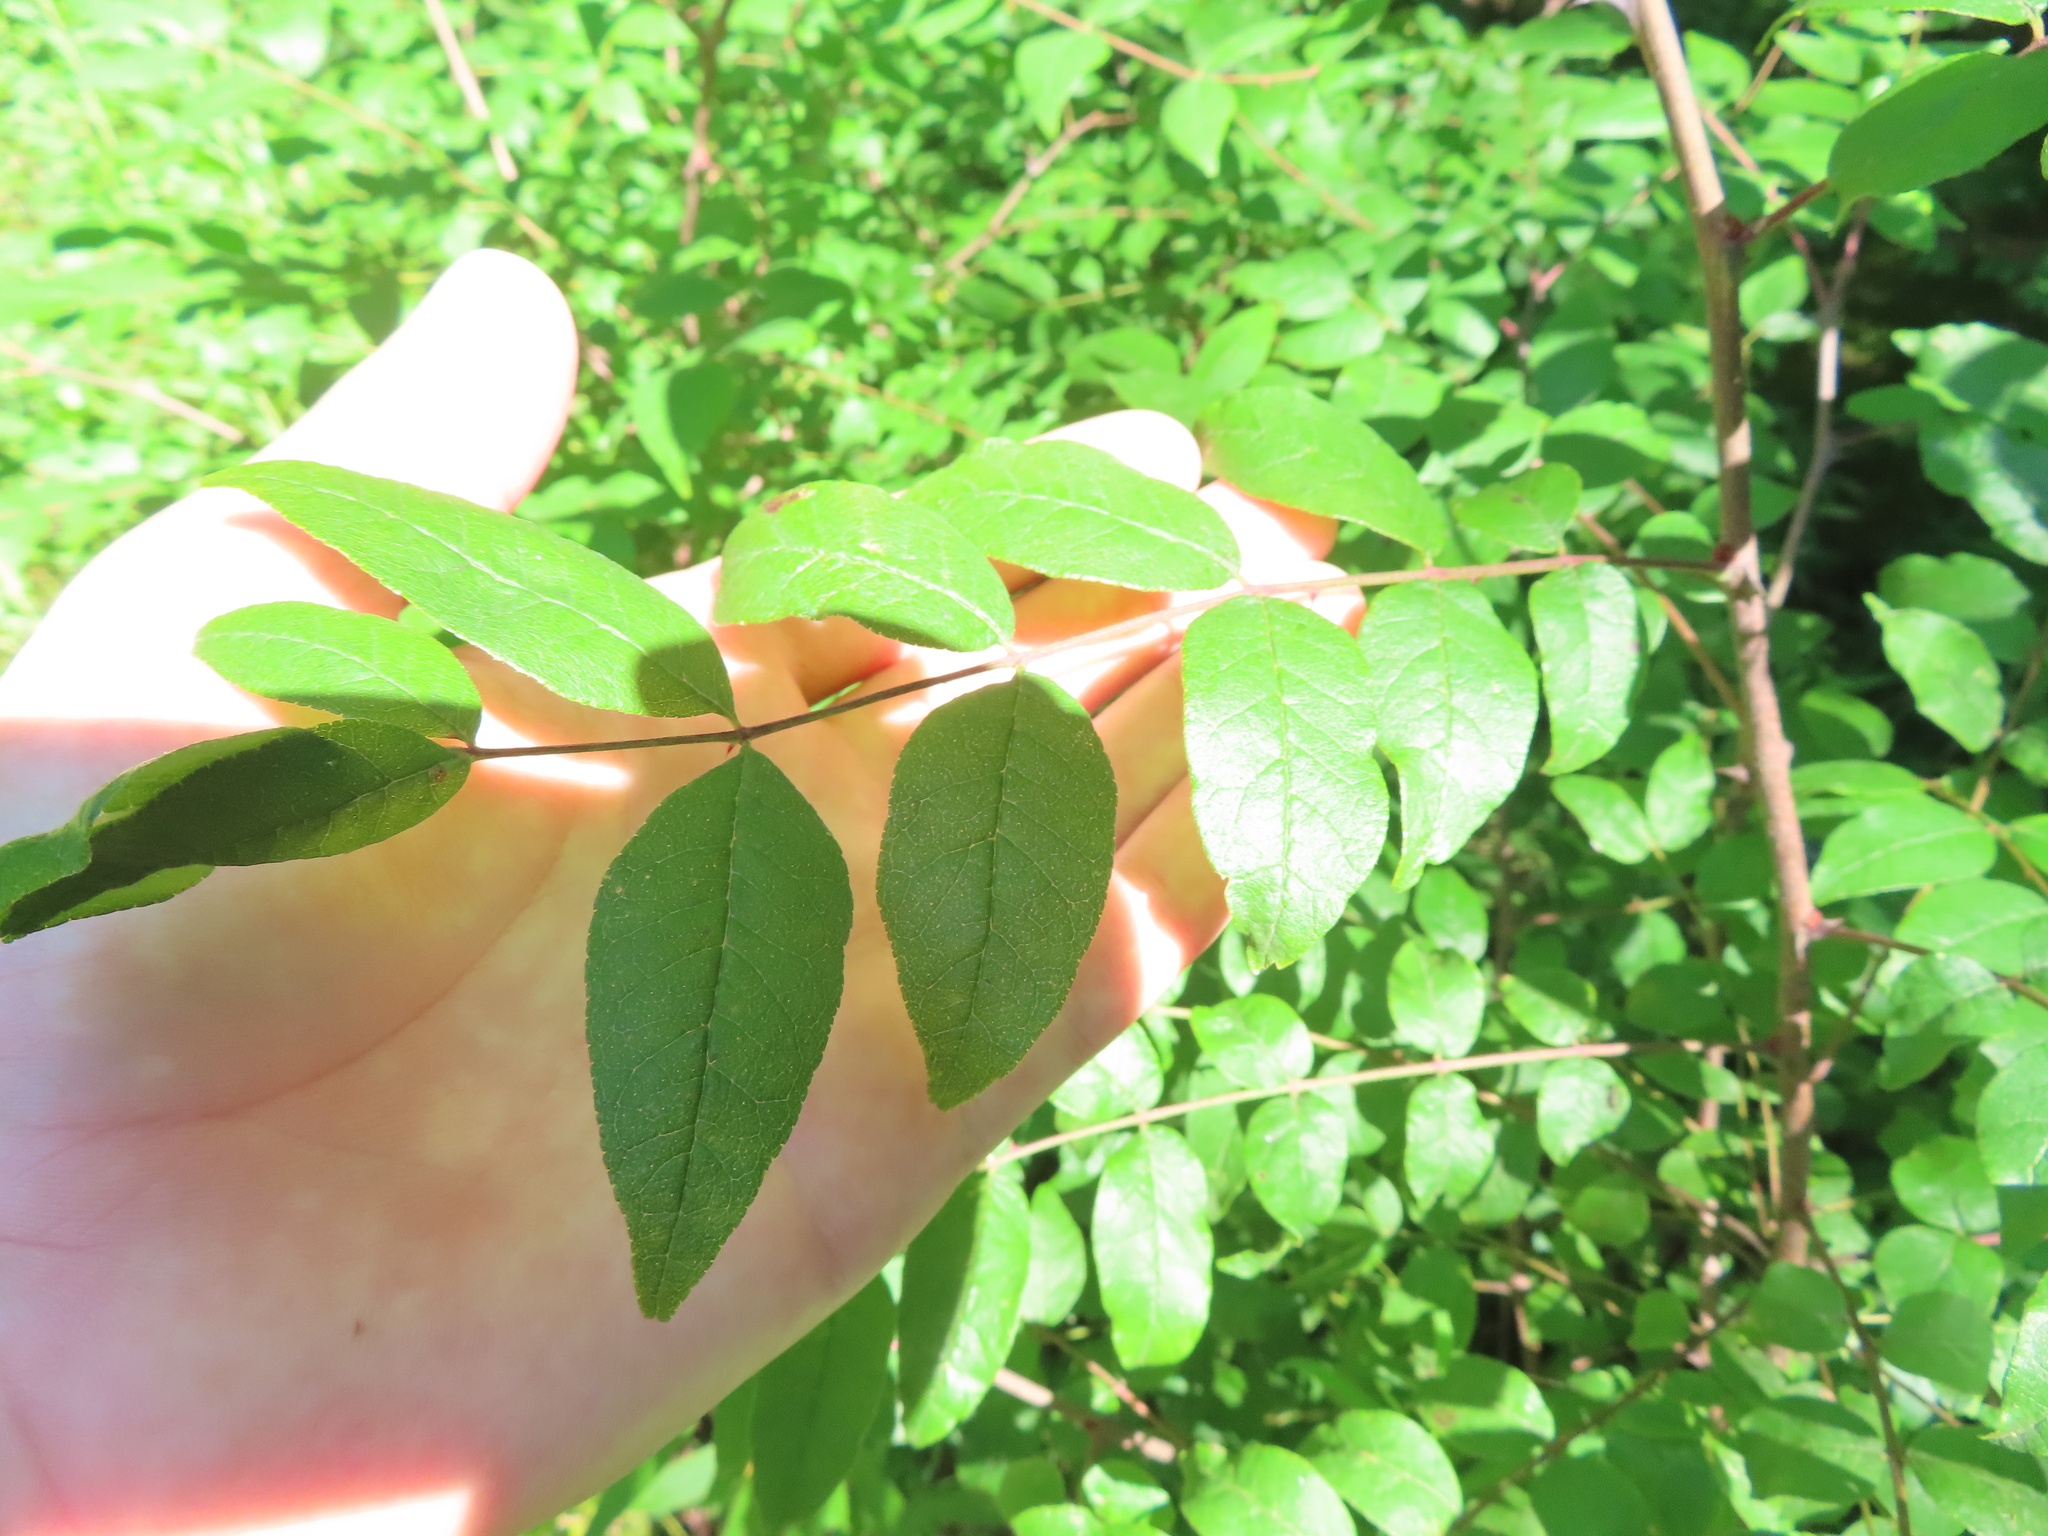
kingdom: Plantae
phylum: Tracheophyta
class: Magnoliopsida
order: Sapindales
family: Rutaceae
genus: Zanthoxylum
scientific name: Zanthoxylum americanum
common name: Northern prickly-ash
